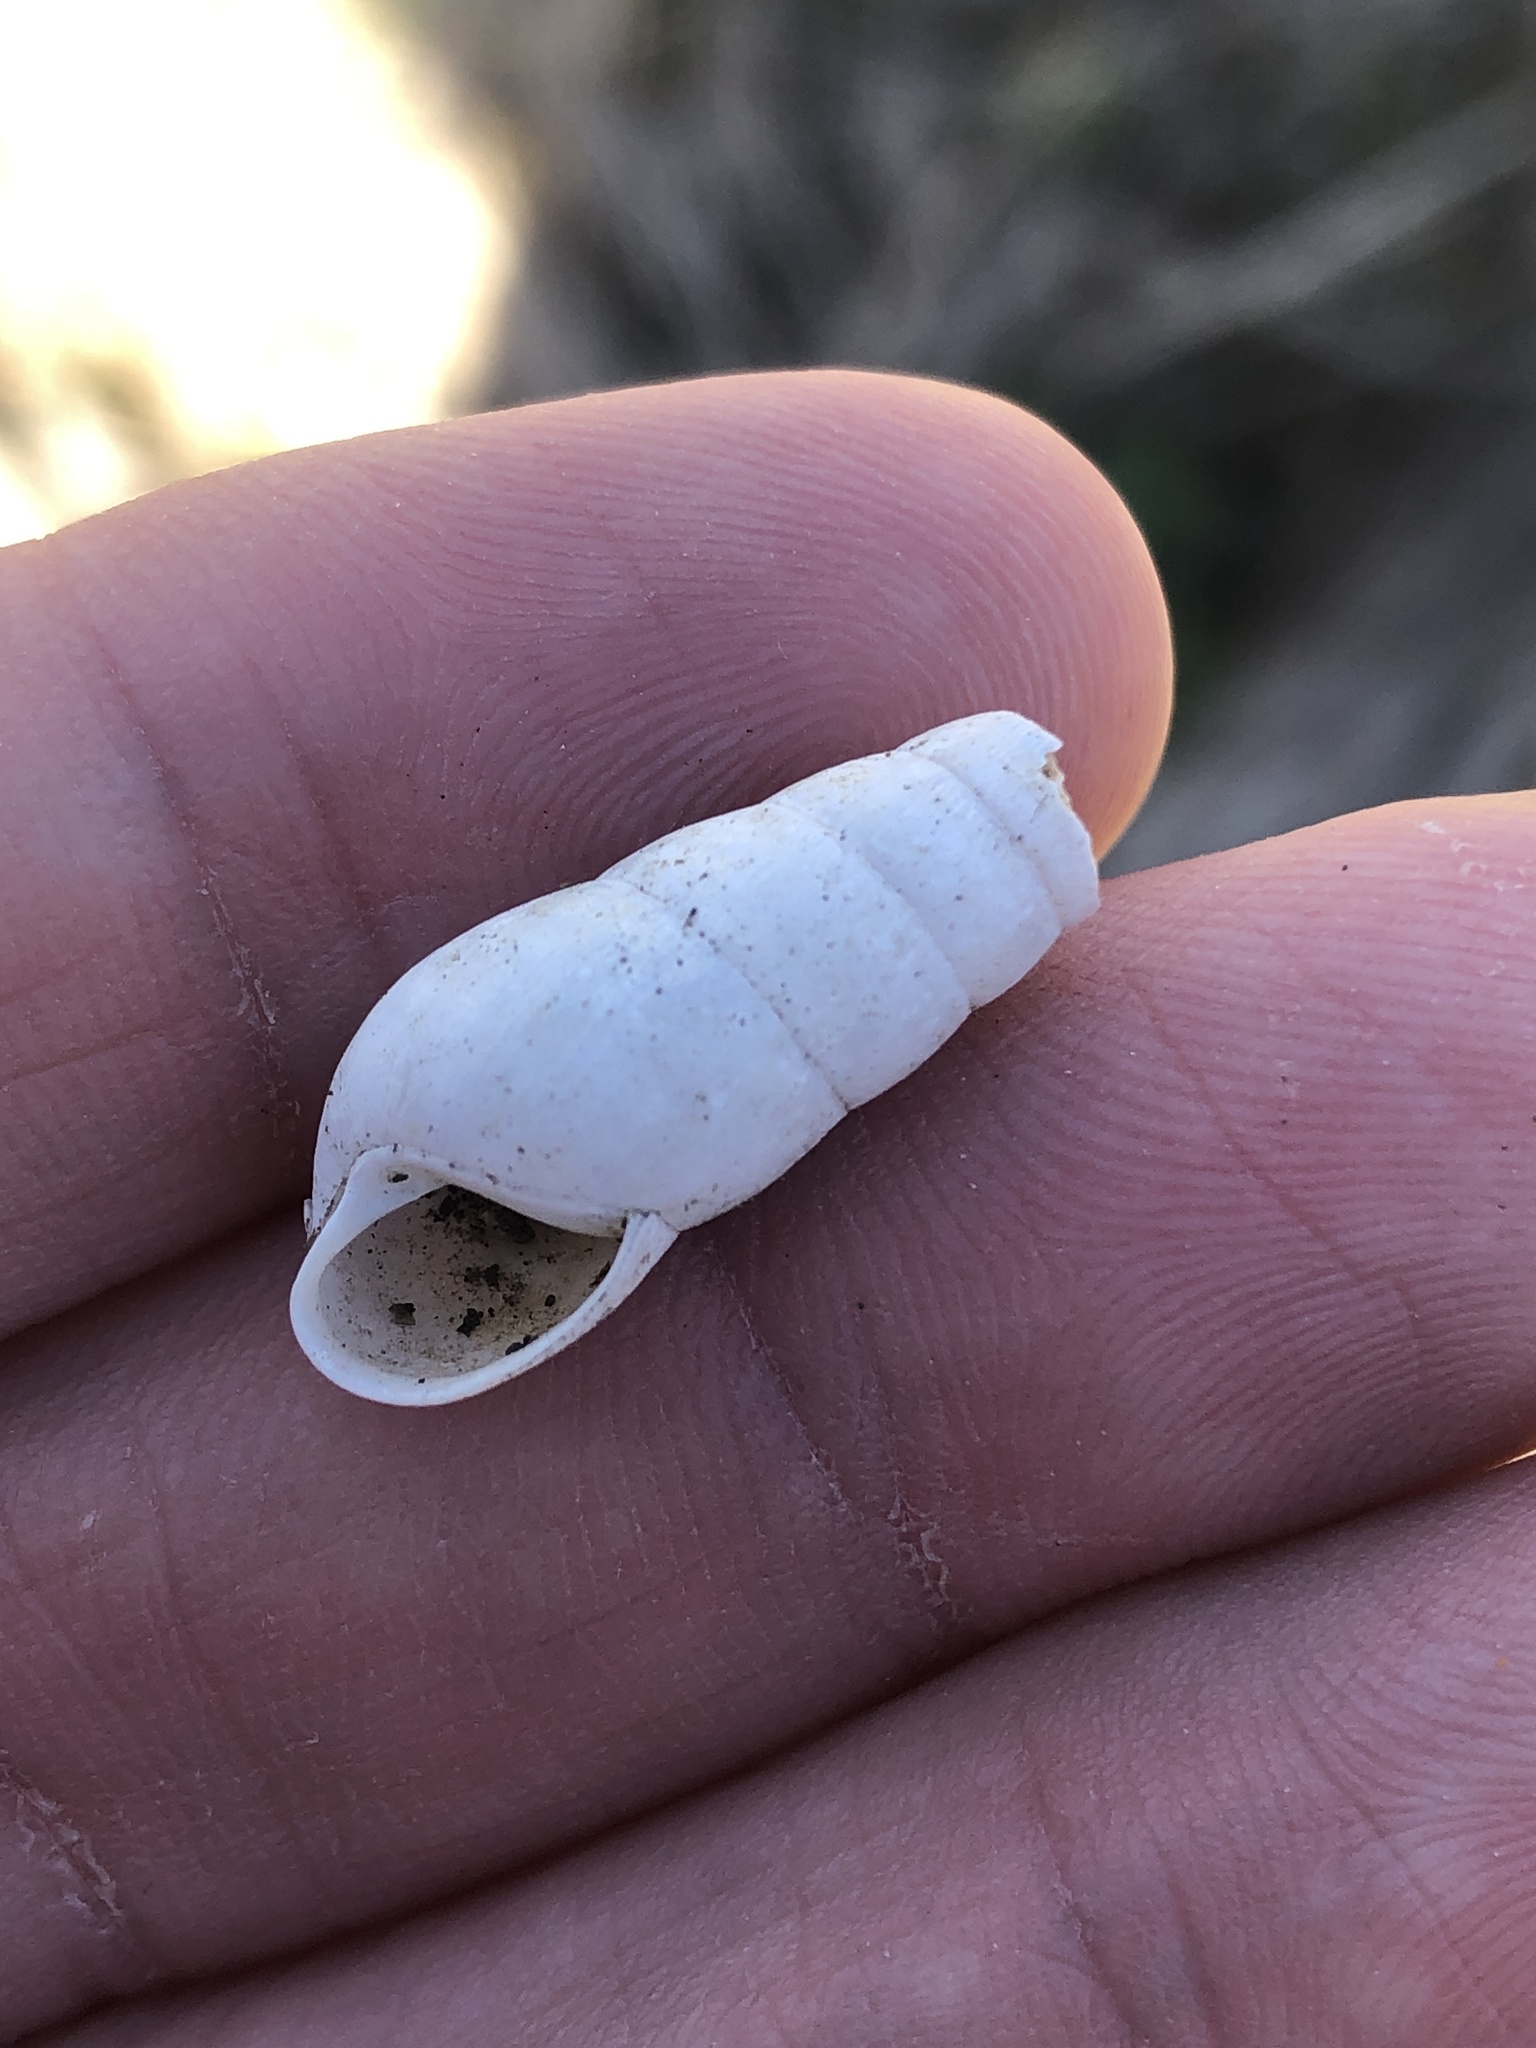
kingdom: Animalia
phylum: Mollusca
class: Gastropoda
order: Stylommatophora
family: Achatinidae
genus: Rumina
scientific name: Rumina decollata
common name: Decollate snail
